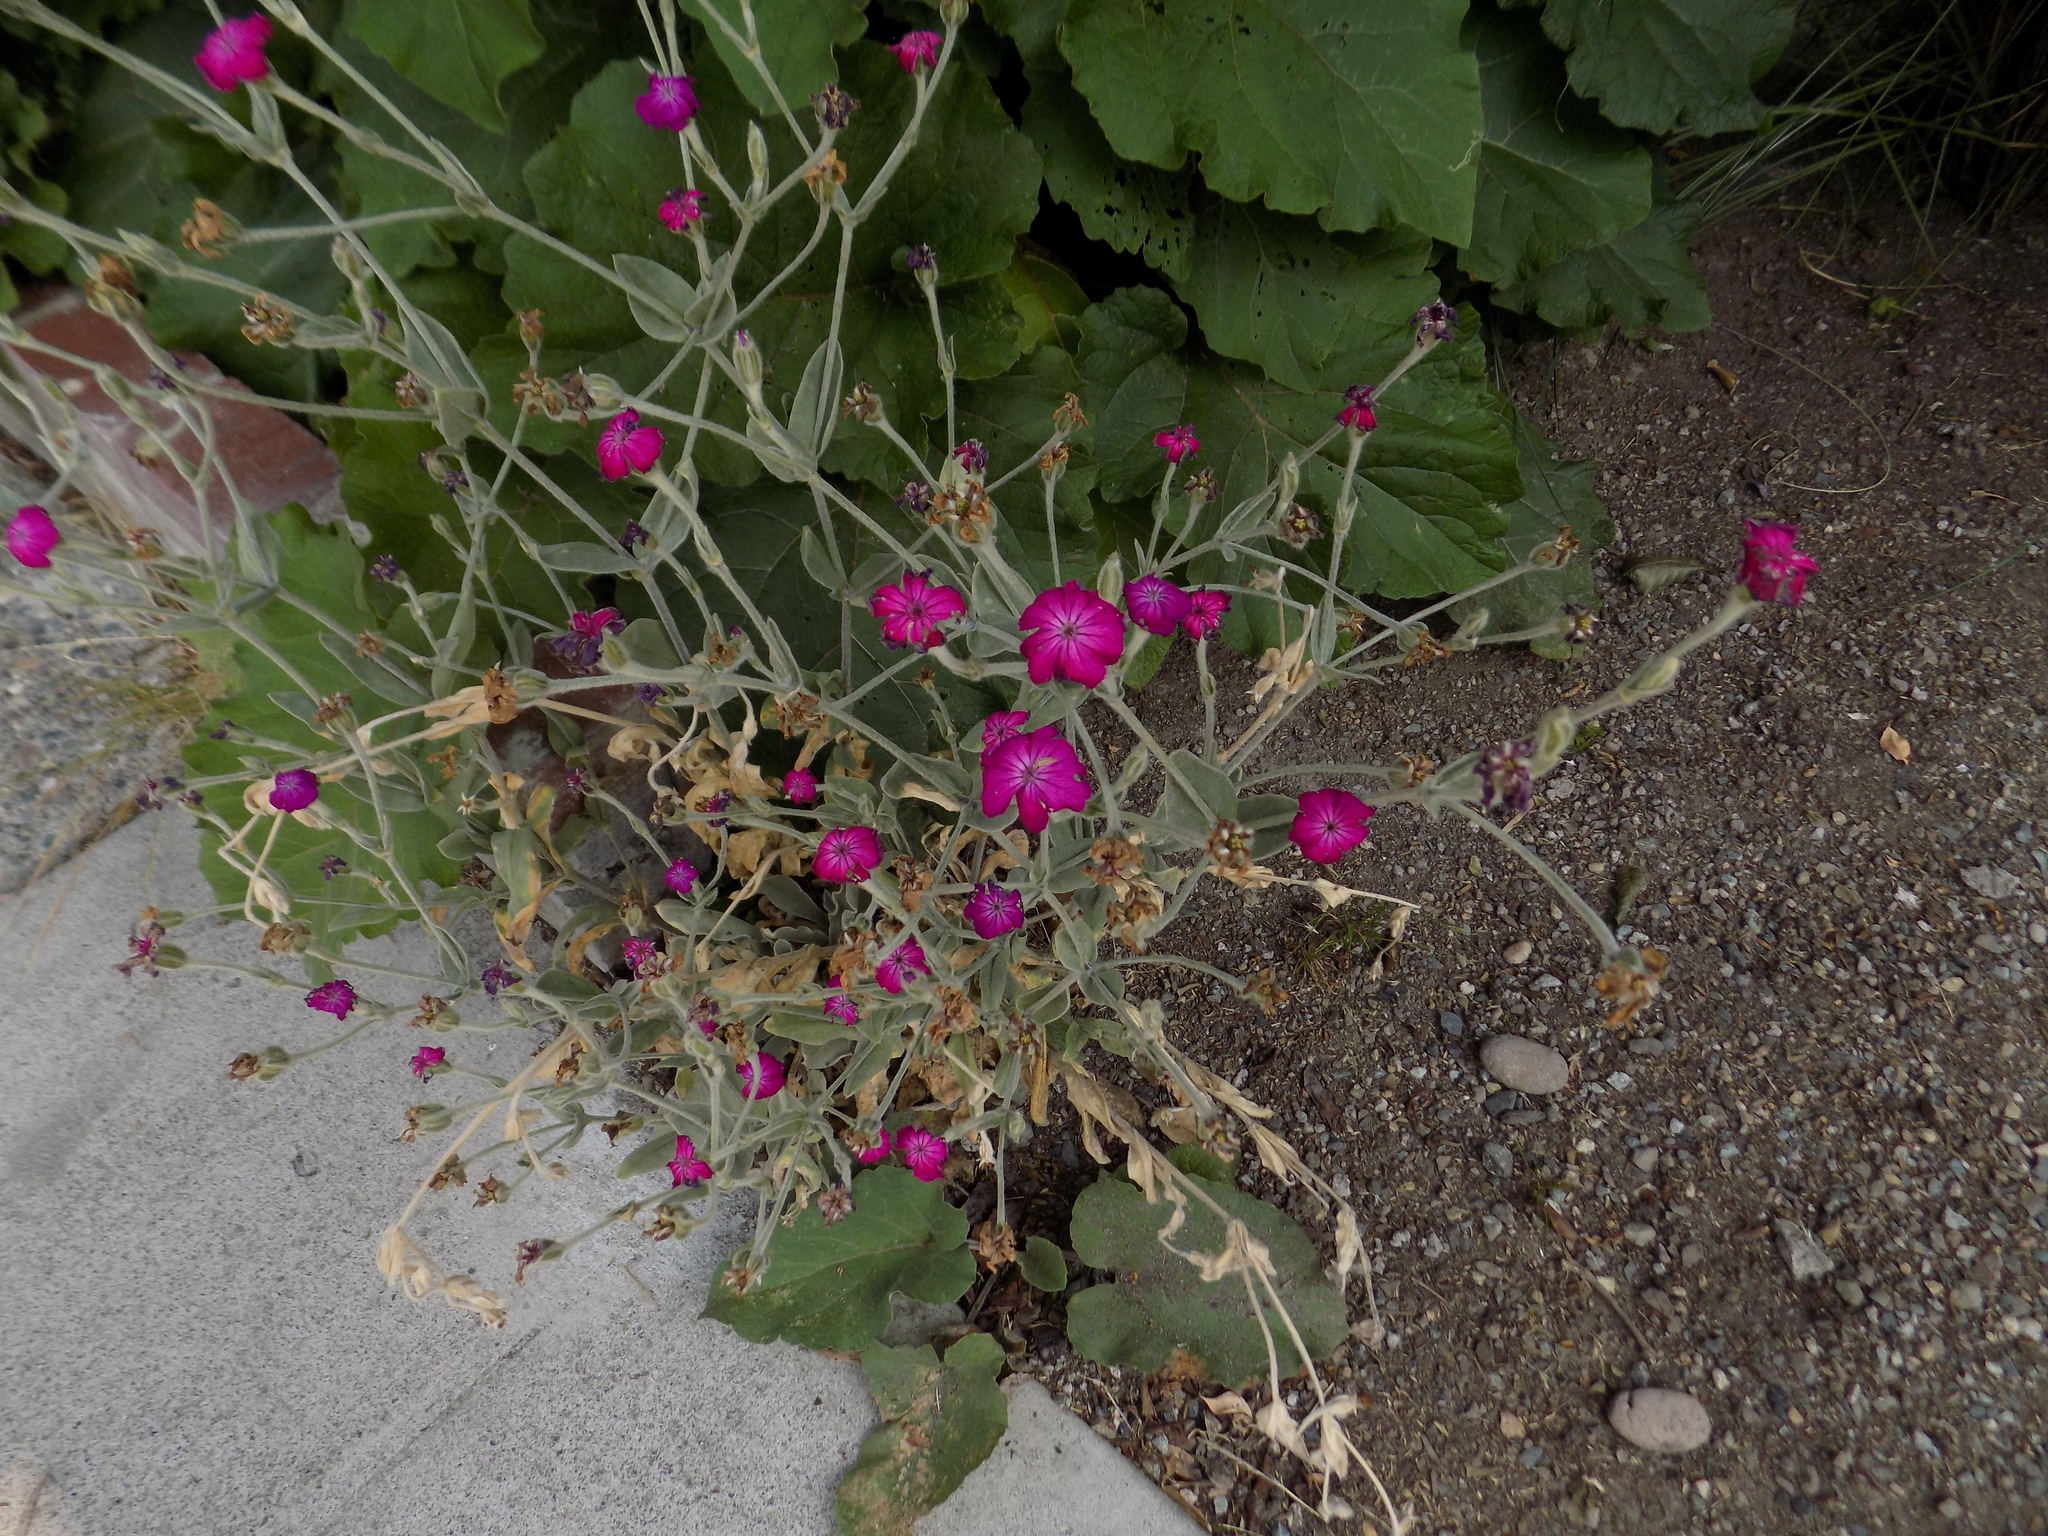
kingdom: Plantae
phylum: Tracheophyta
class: Magnoliopsida
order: Caryophyllales
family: Caryophyllaceae
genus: Silene
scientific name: Silene coronaria
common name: Rose campion
